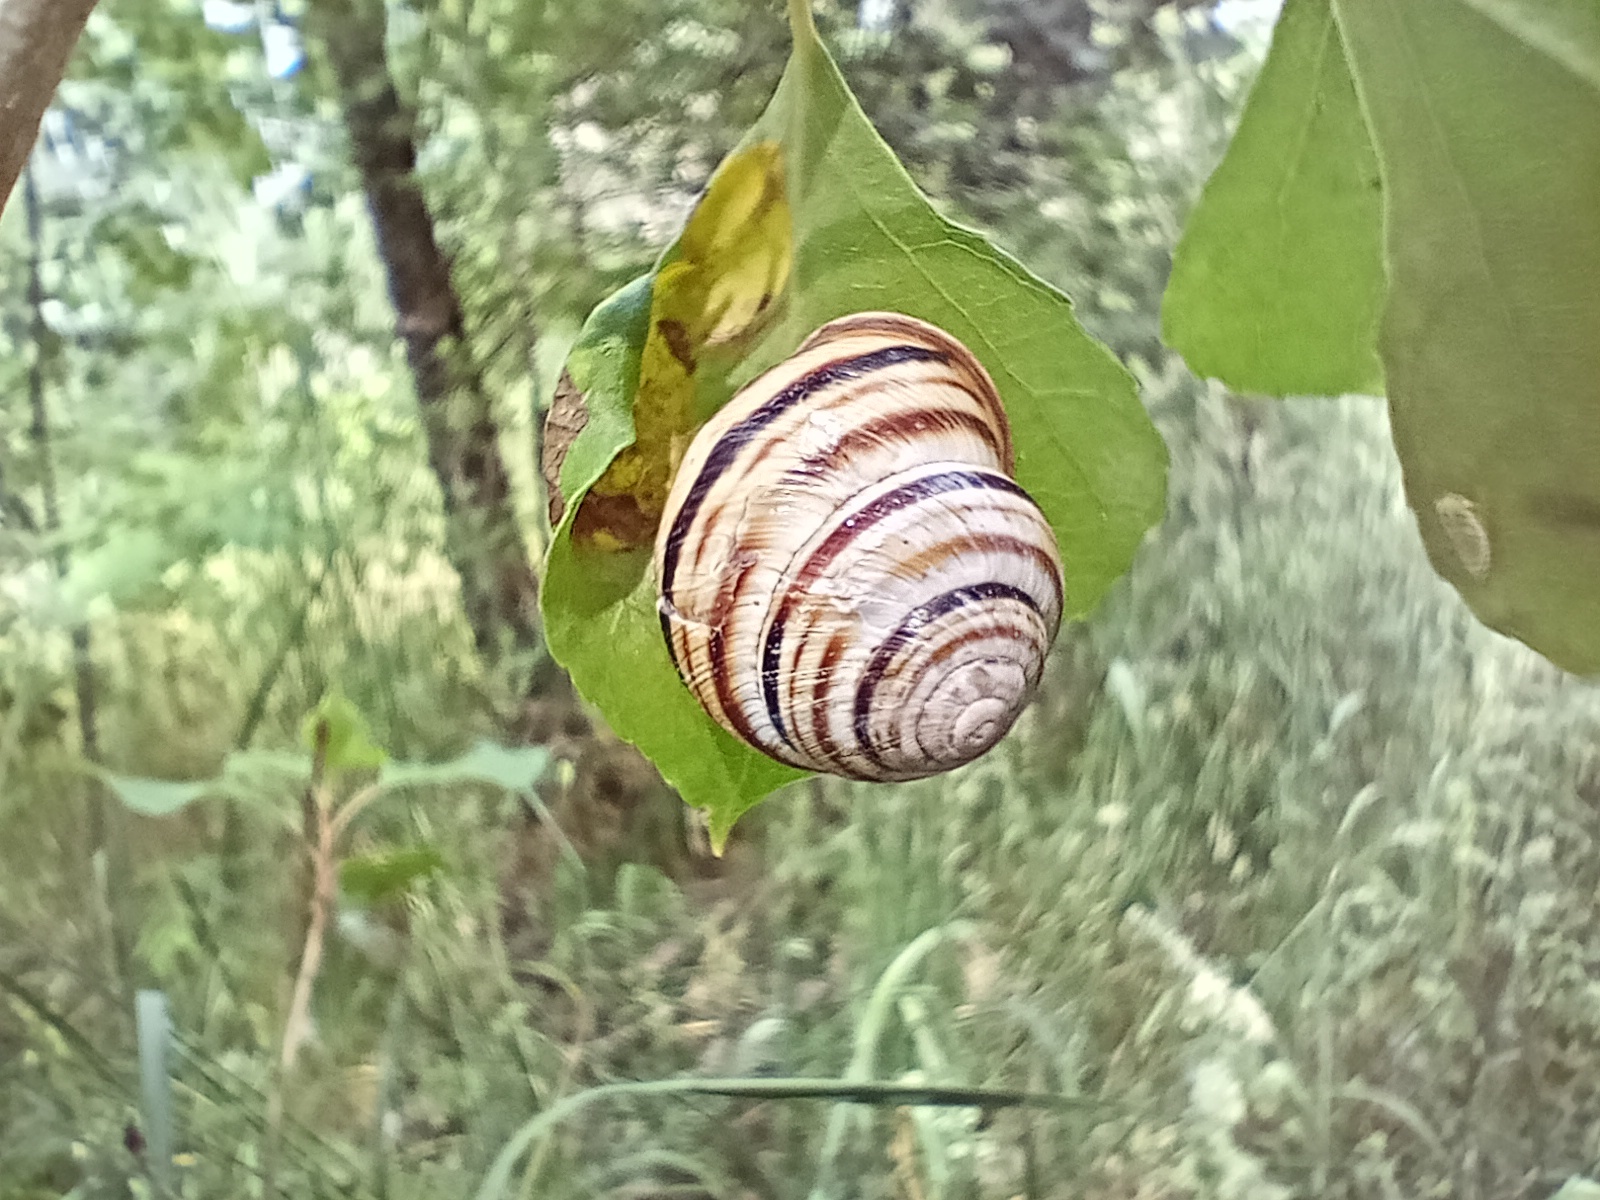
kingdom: Animalia
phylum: Mollusca
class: Gastropoda
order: Stylommatophora
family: Helicidae
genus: Caucasotachea
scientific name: Caucasotachea vindobonensis
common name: European helicid land snail
